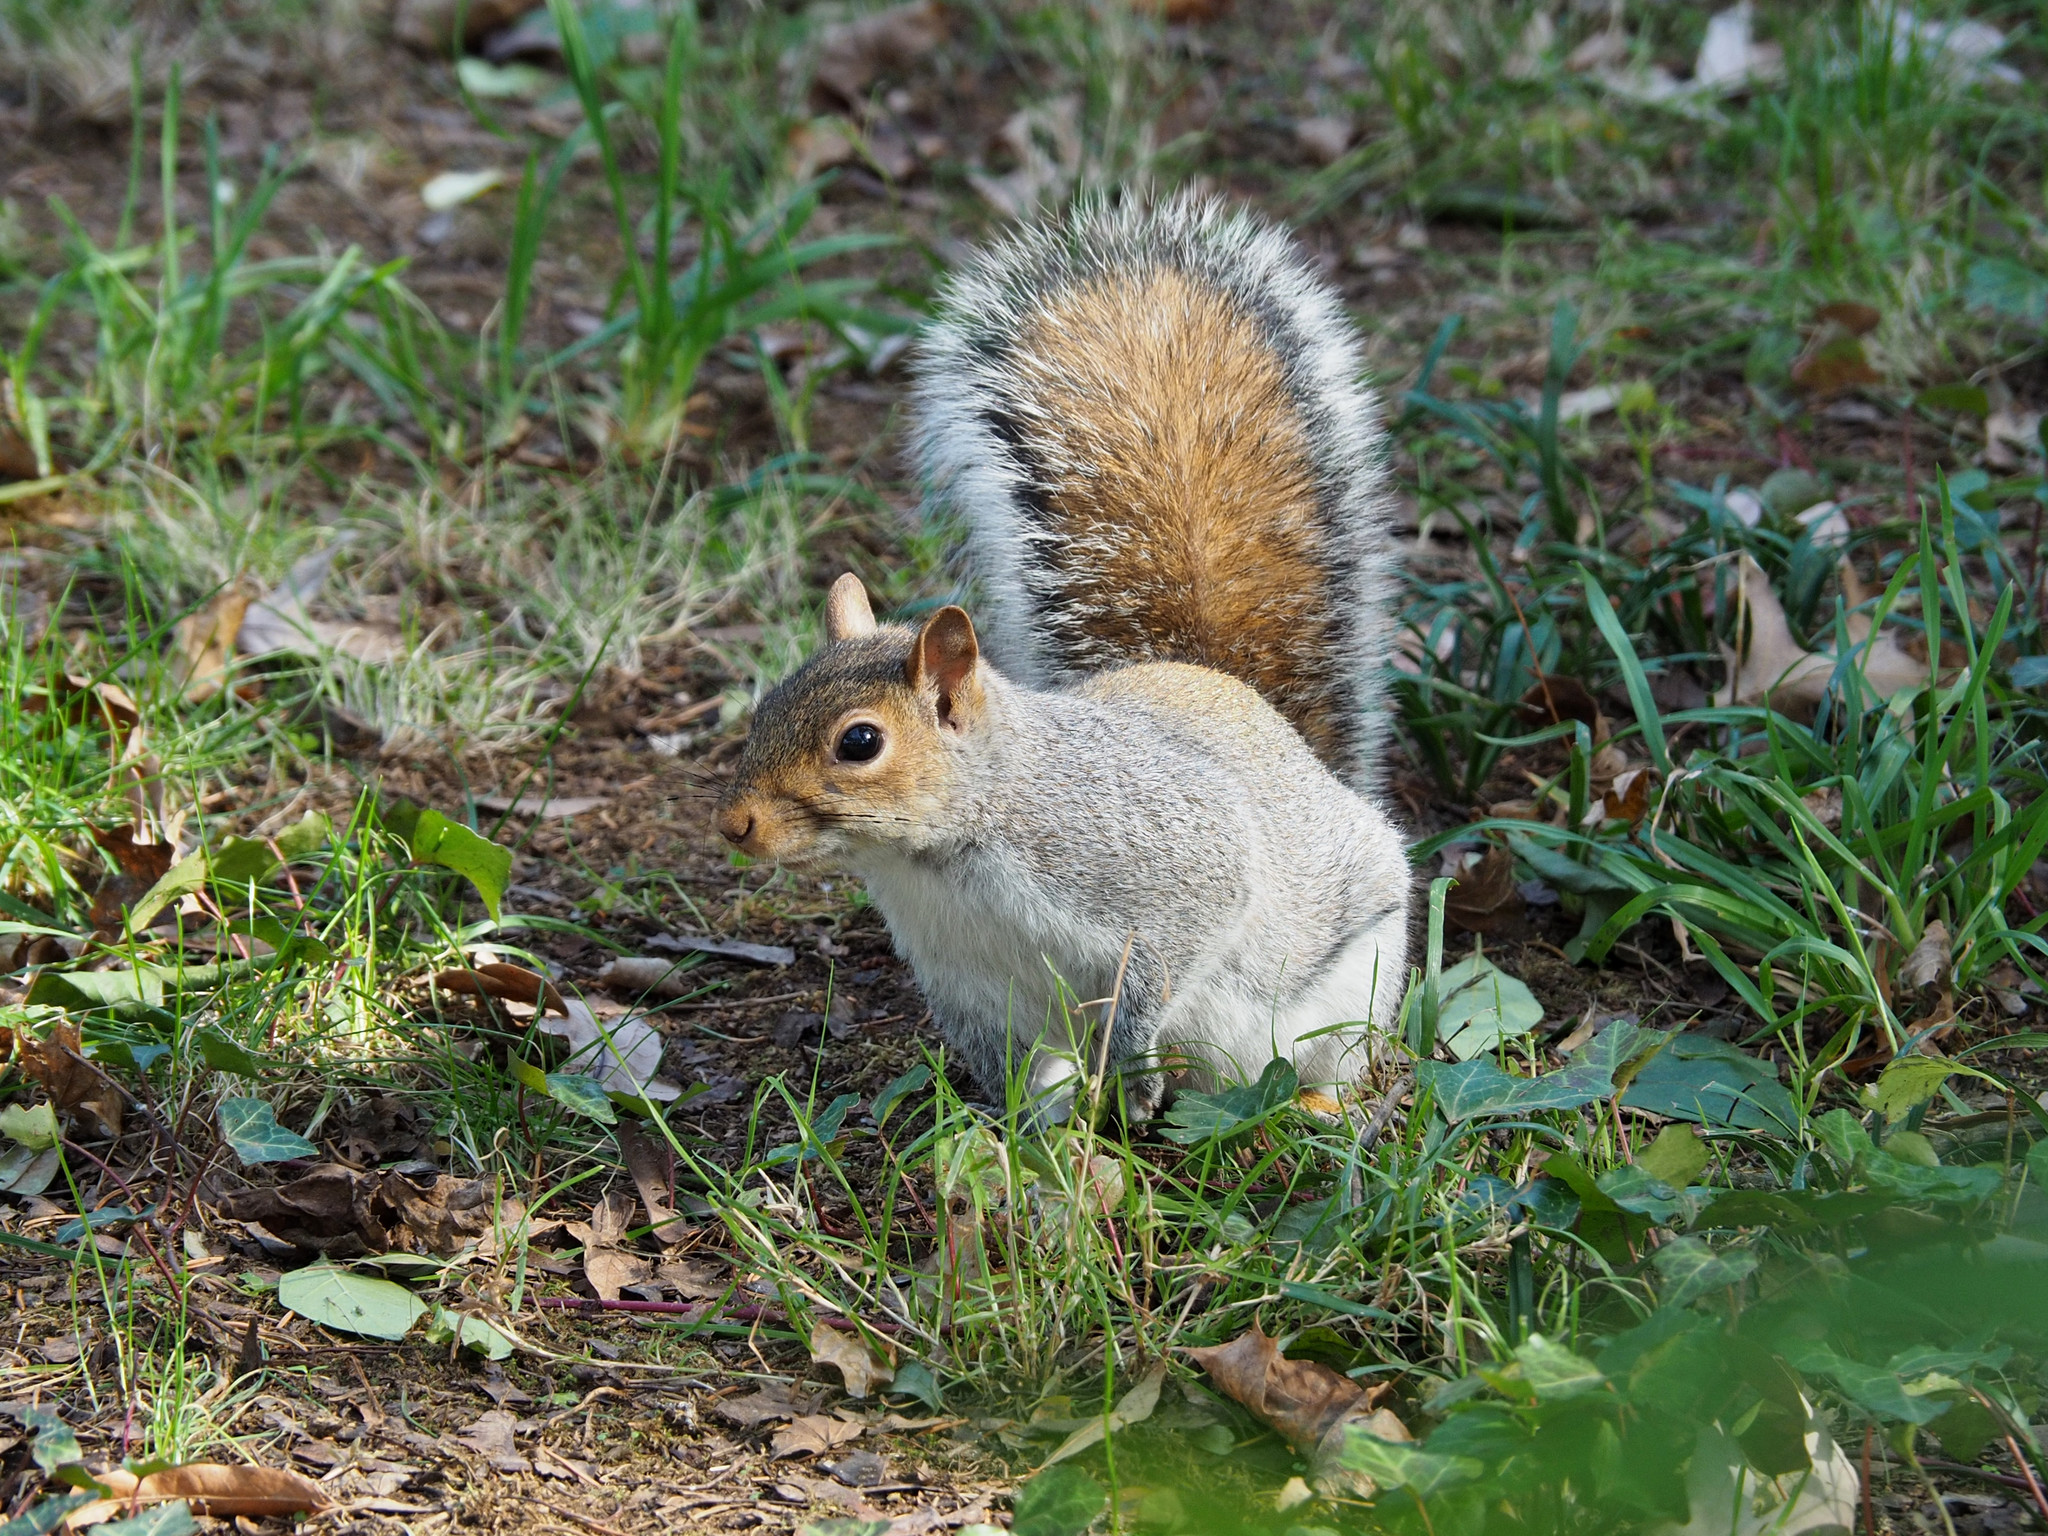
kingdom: Animalia
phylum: Chordata
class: Mammalia
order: Rodentia
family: Sciuridae
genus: Sciurus
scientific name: Sciurus carolinensis
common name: Eastern gray squirrel
